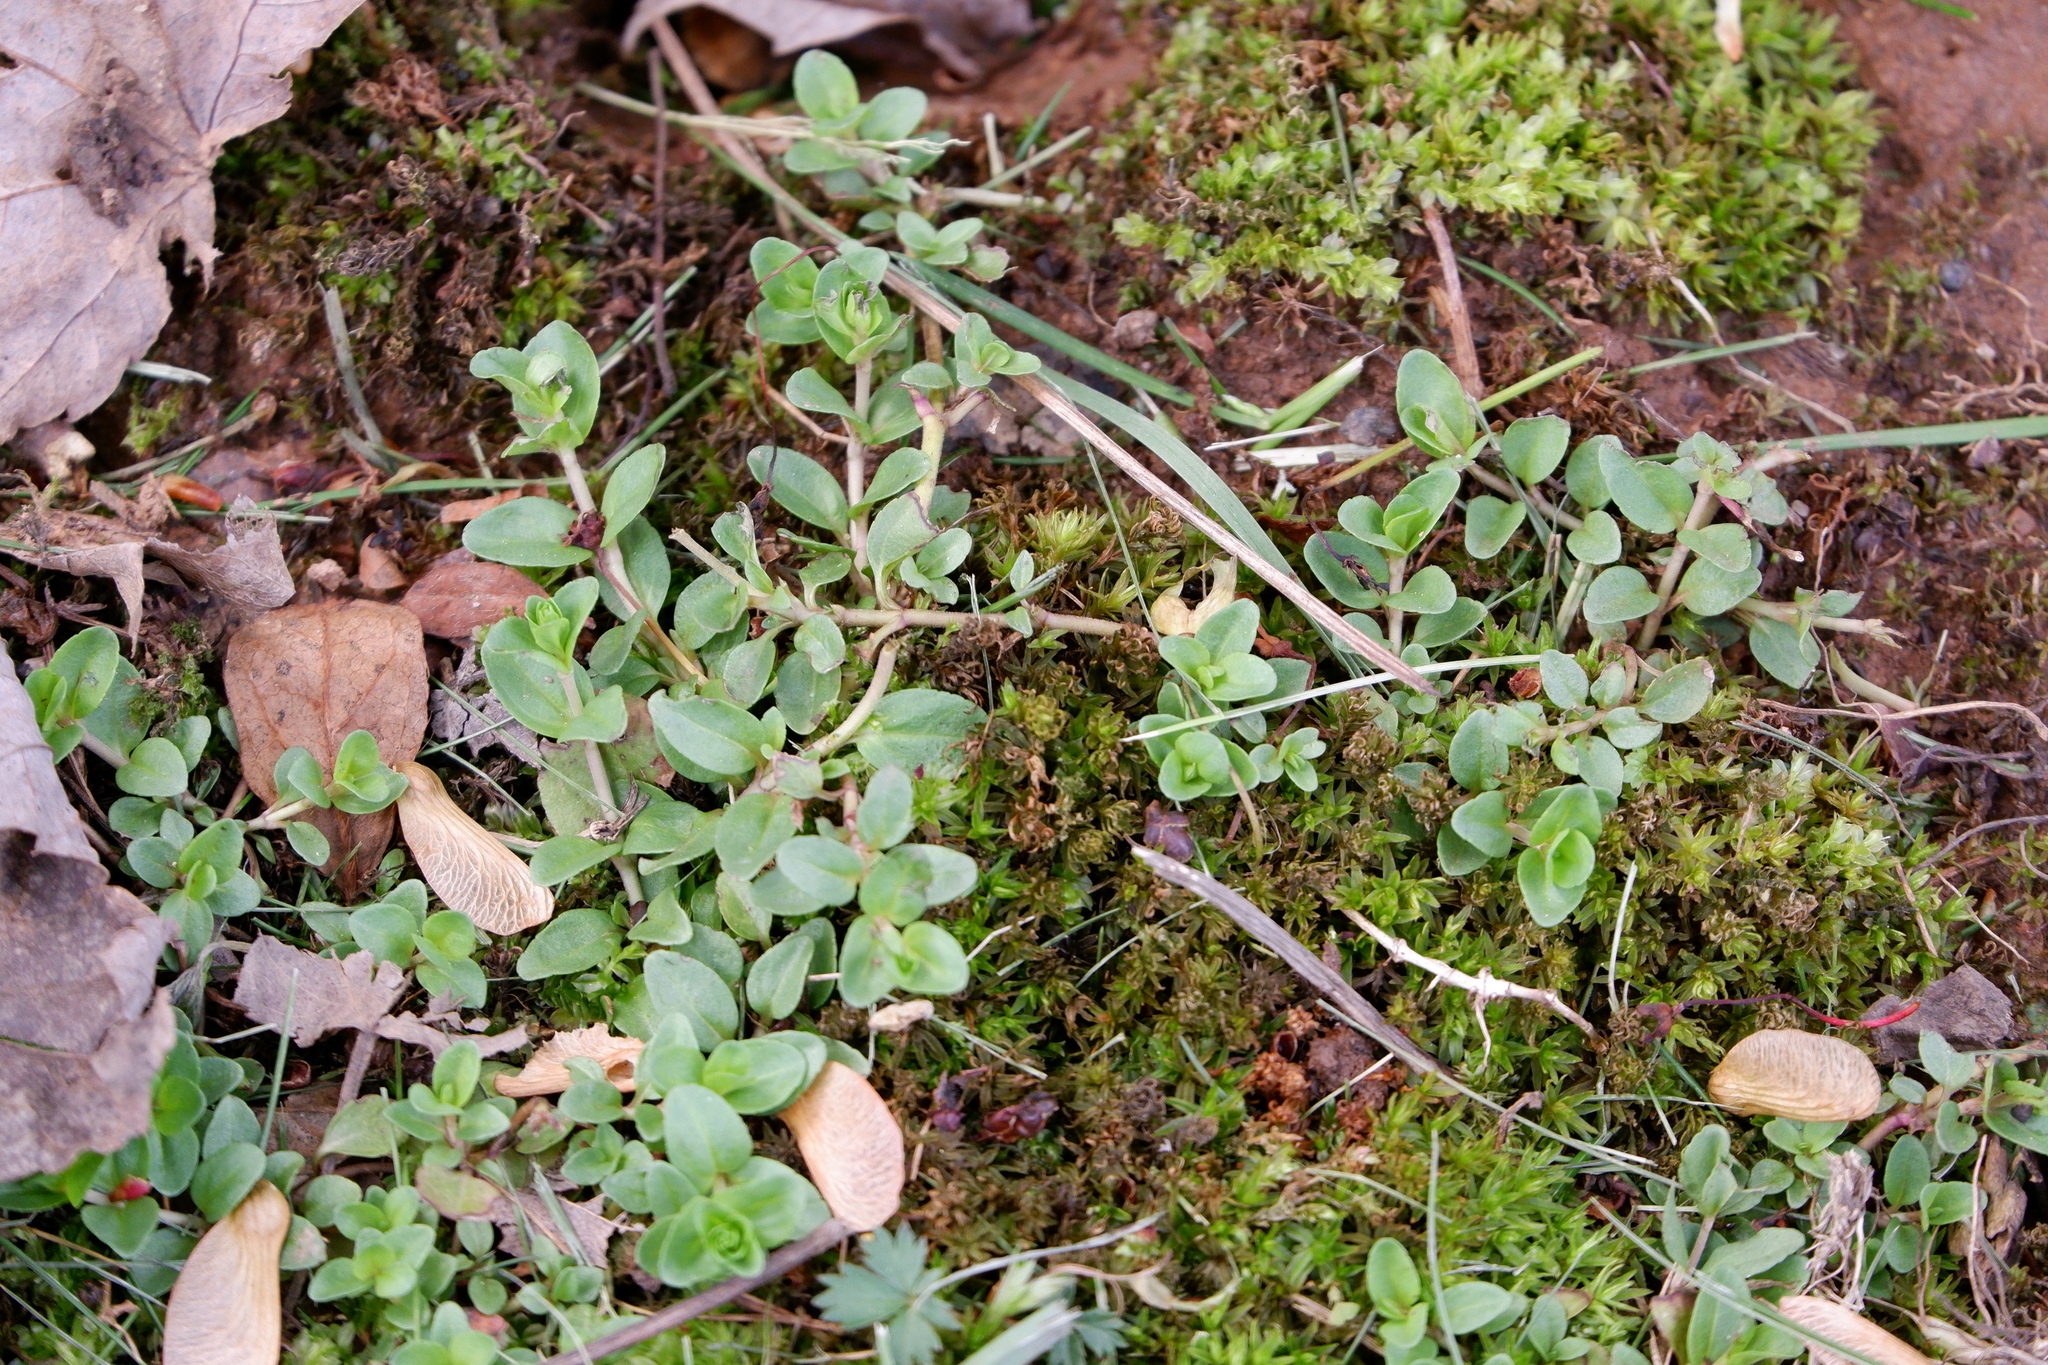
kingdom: Plantae
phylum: Tracheophyta
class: Magnoliopsida
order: Lamiales
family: Plantaginaceae
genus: Veronica
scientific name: Veronica serpyllifolia
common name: Thyme-leaved speedwell
